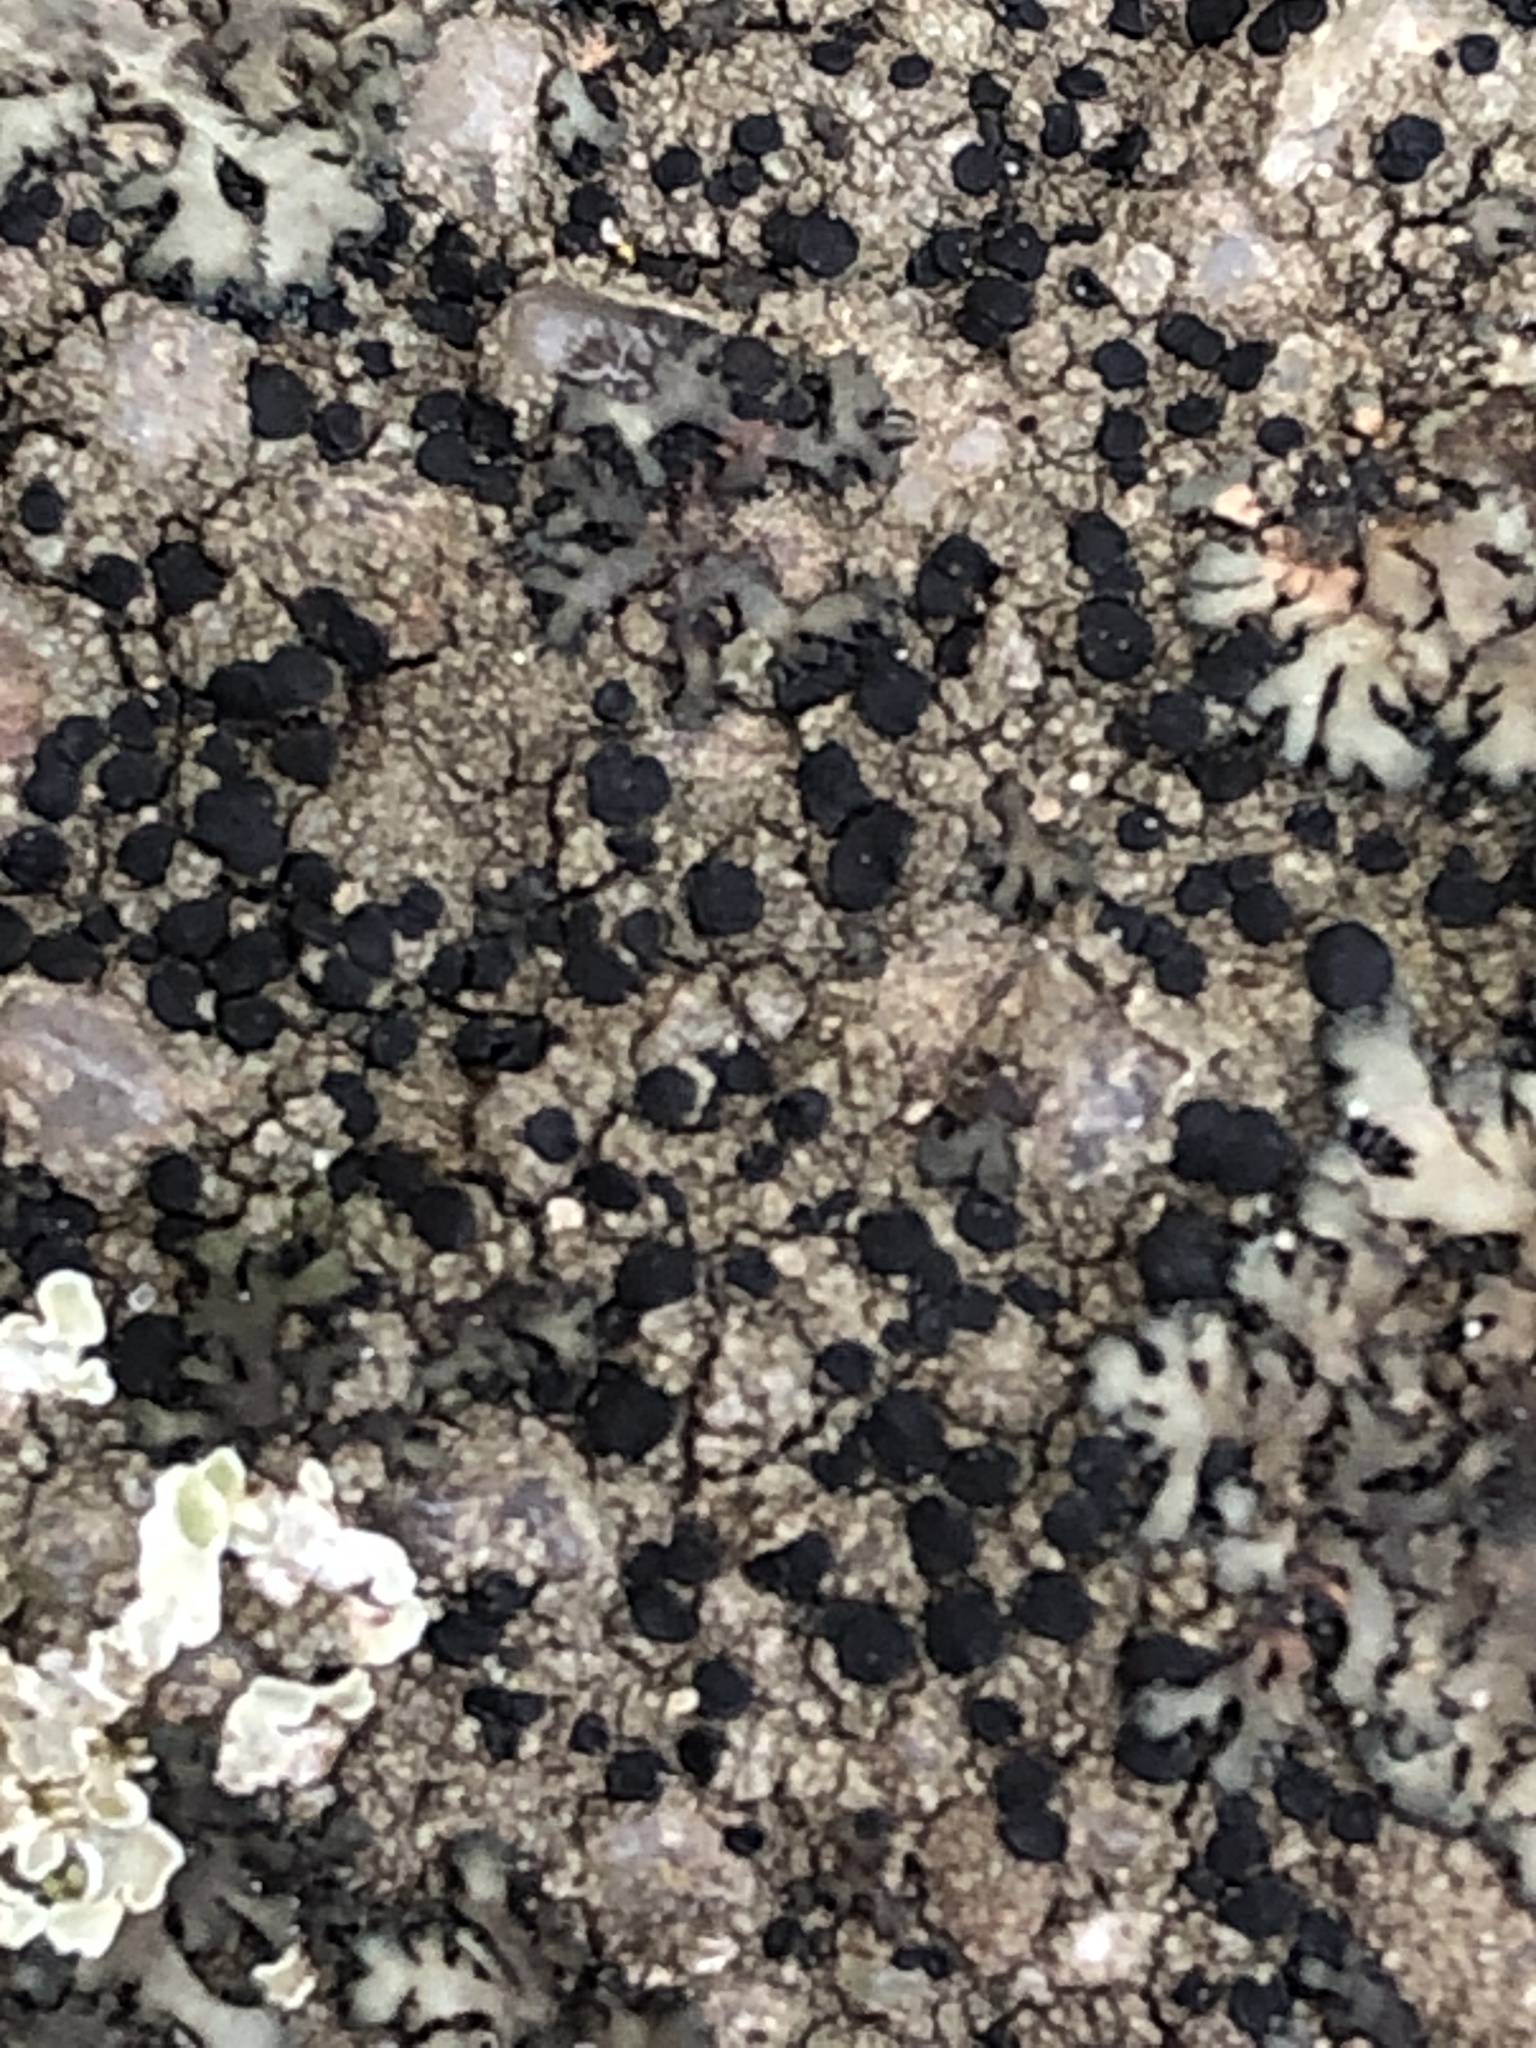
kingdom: Fungi
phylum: Ascomycota
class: Lecanoromycetes
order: Lecanorales
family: Lecanoraceae
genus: Lecidella
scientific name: Lecidella stigmatea
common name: Limestone disc lichen
